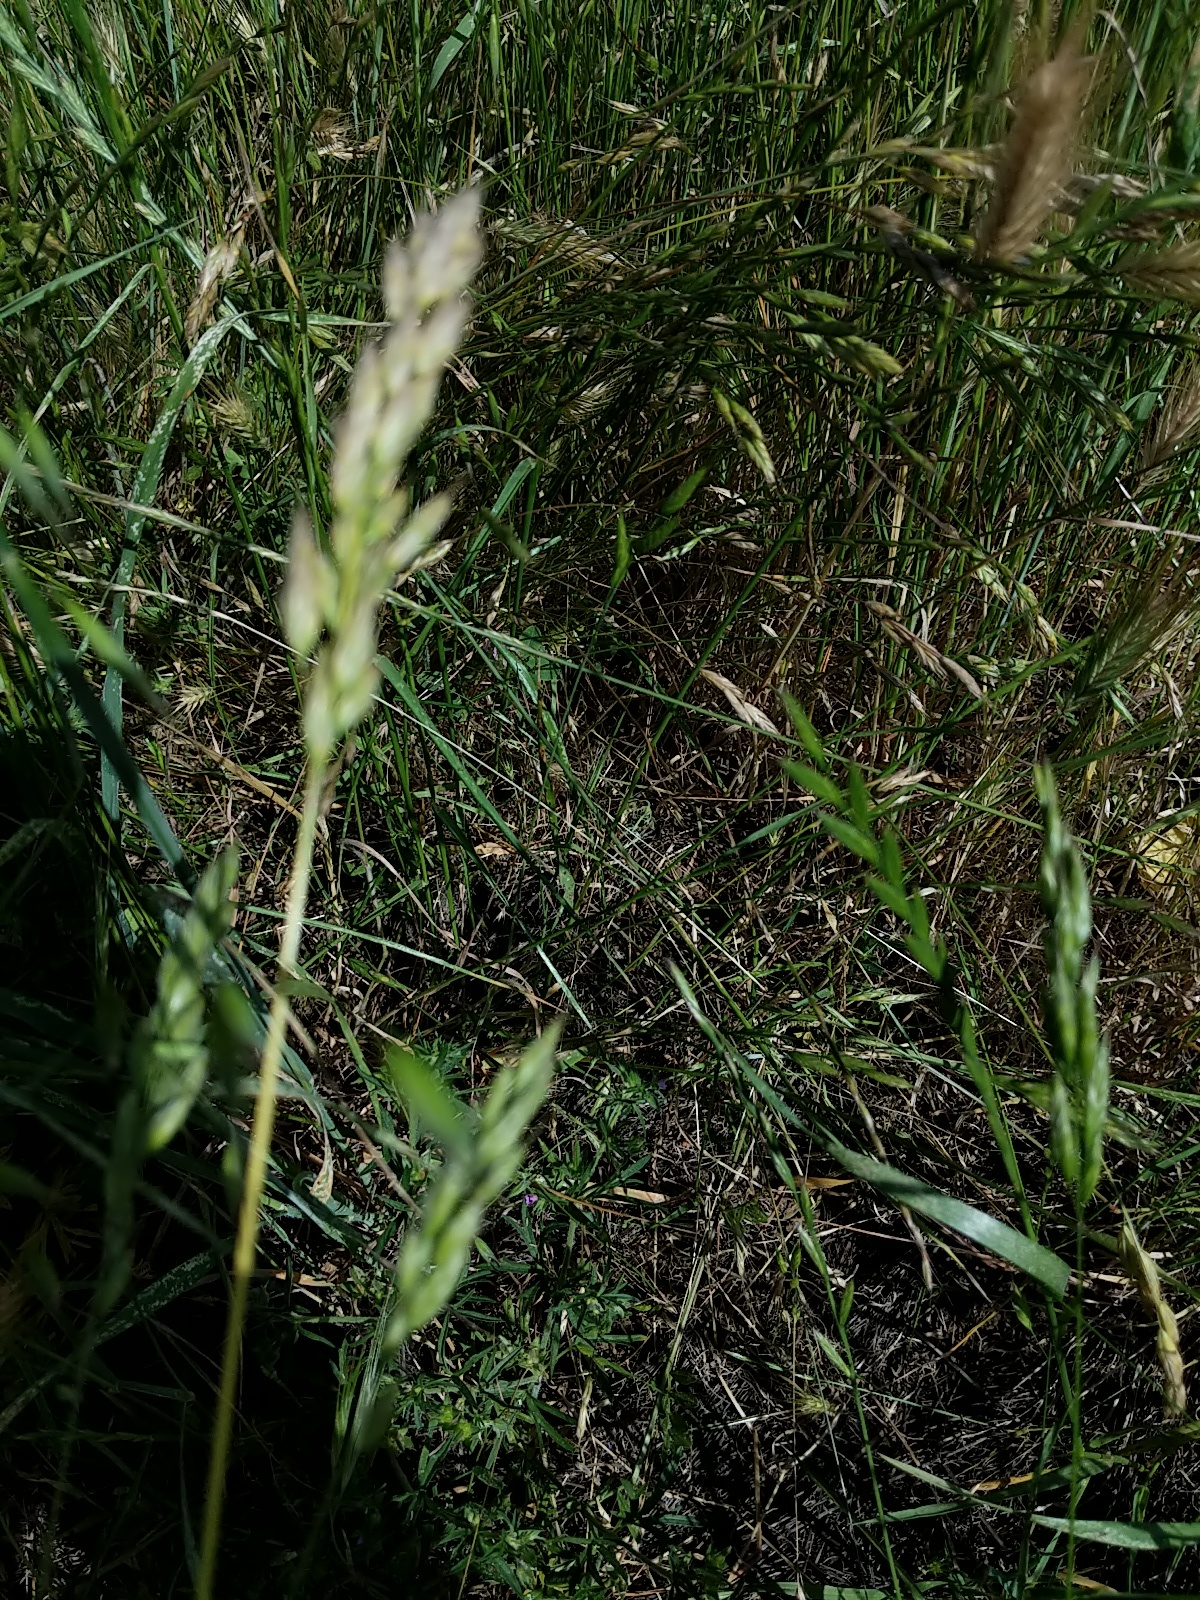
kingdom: Plantae
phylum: Tracheophyta
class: Liliopsida
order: Poales
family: Poaceae
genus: Bromus
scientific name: Bromus hordeaceus
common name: Soft brome
